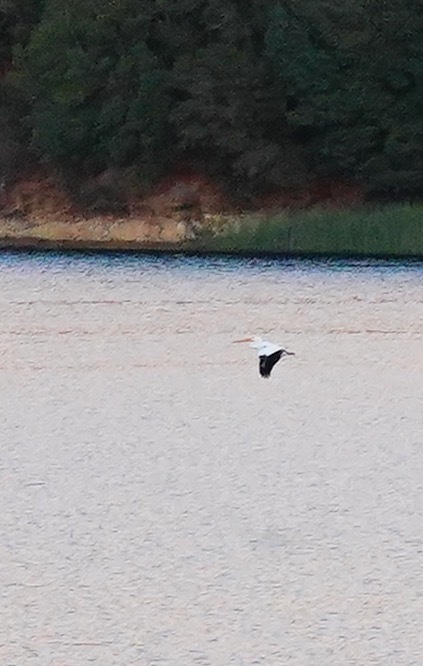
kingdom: Animalia
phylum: Chordata
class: Aves
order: Pelecaniformes
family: Pelecanidae
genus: Pelecanus
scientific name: Pelecanus erythrorhynchos
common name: American white pelican
